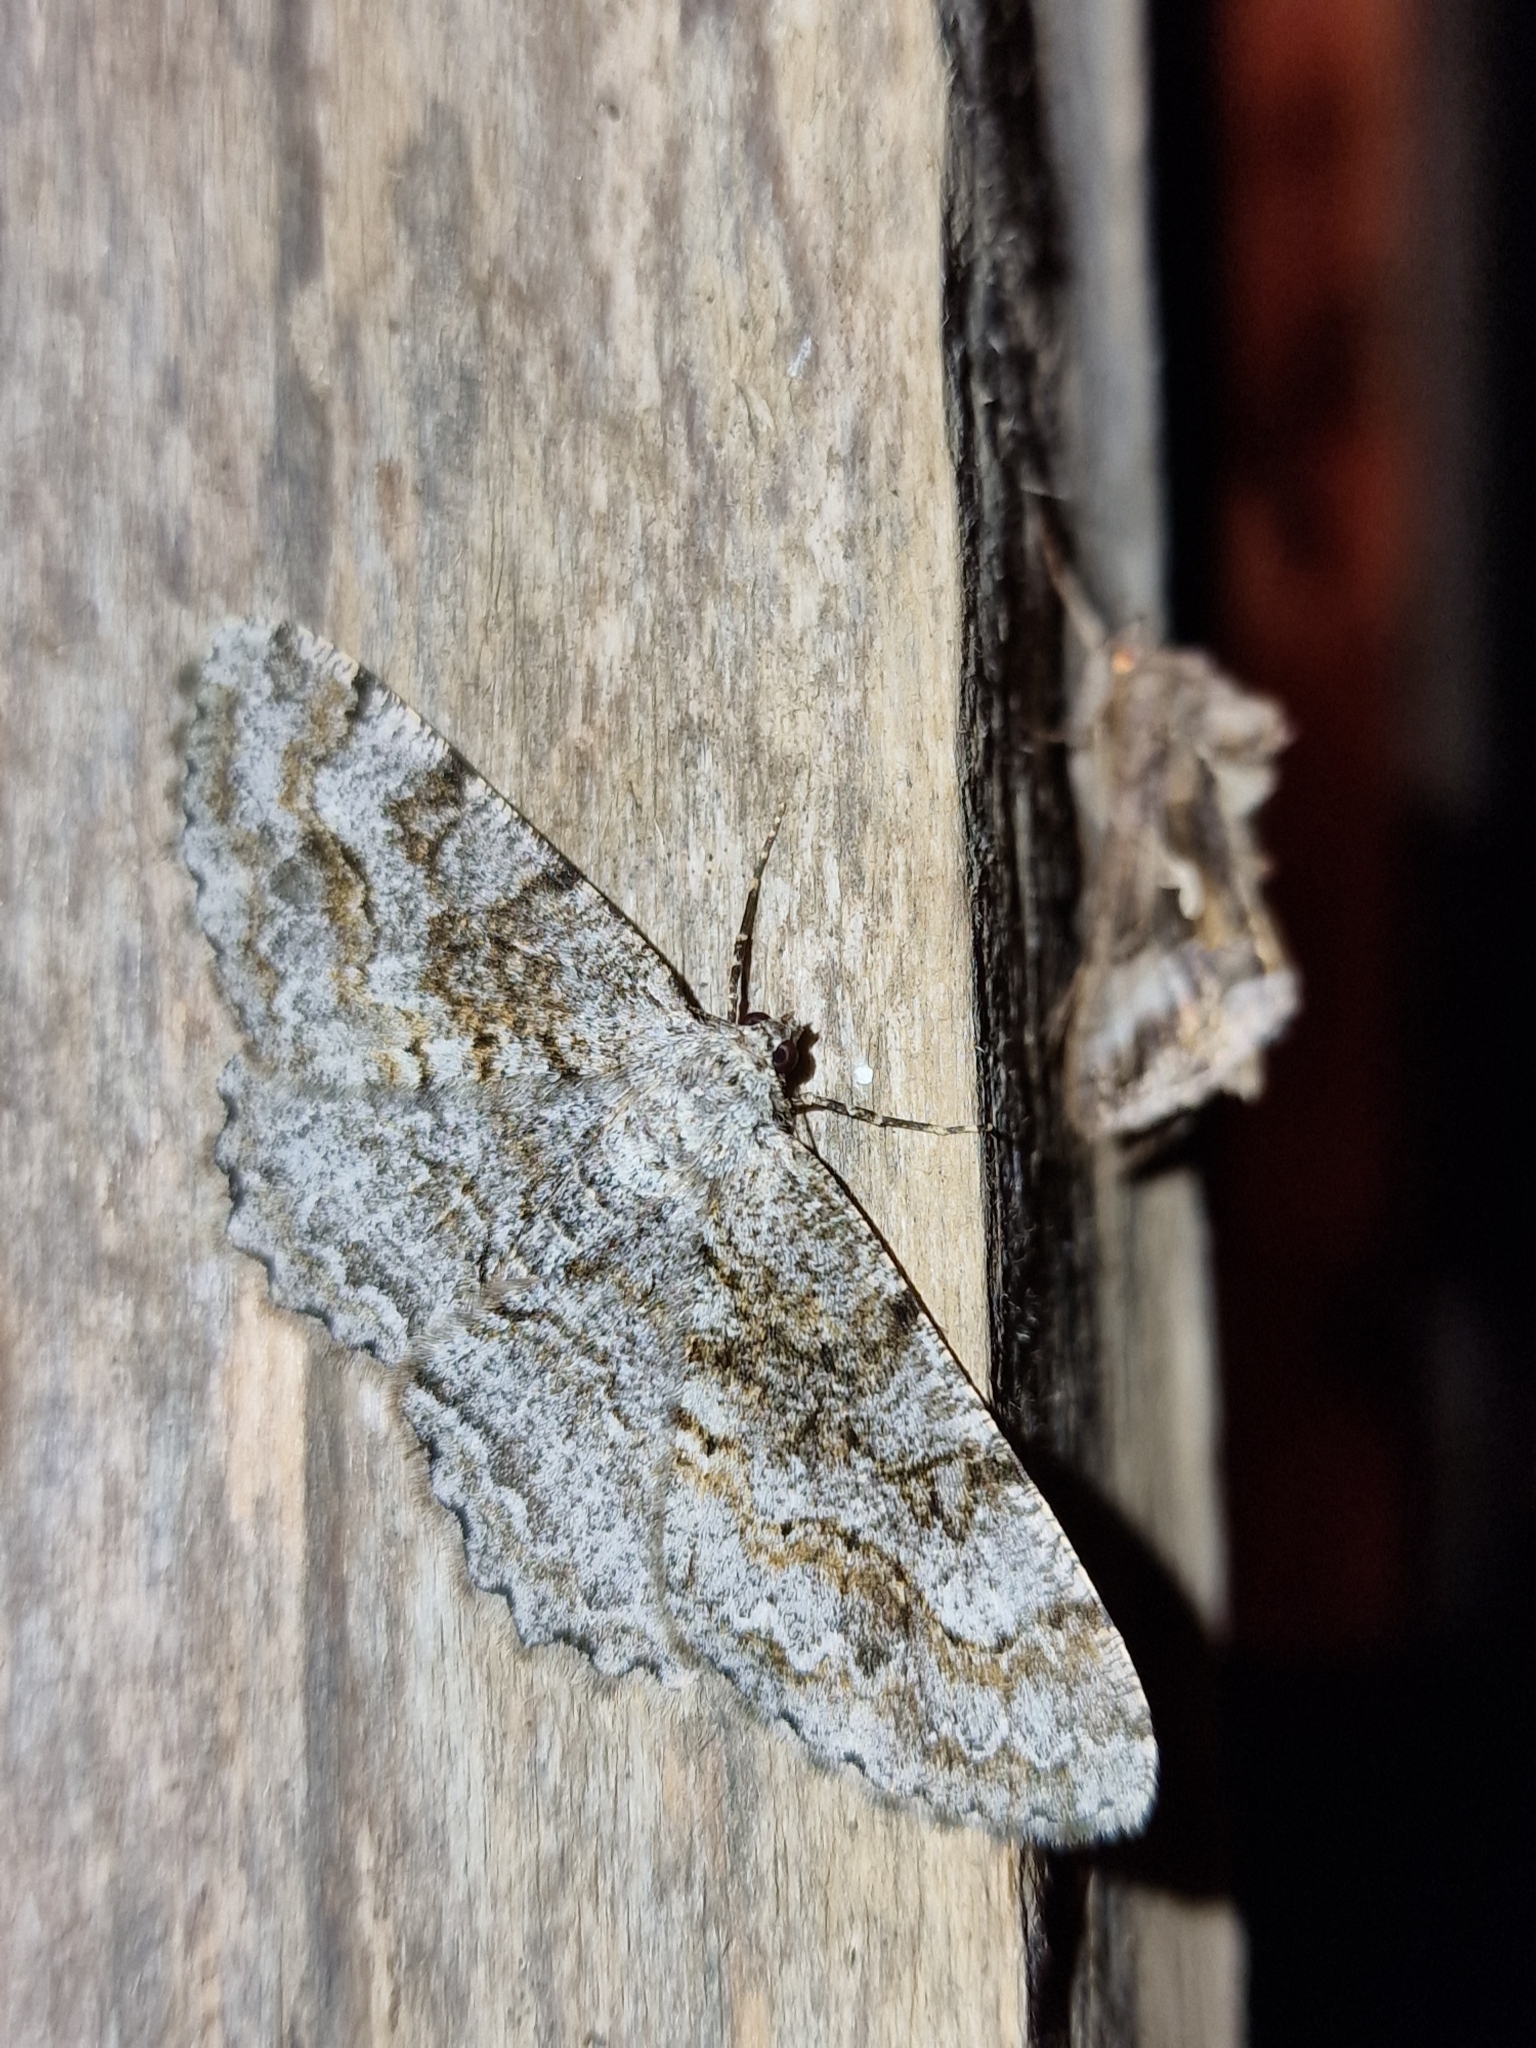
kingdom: Animalia
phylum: Arthropoda
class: Insecta
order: Lepidoptera
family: Geometridae
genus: Alcis
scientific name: Alcis repandata
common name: Mottled beauty
